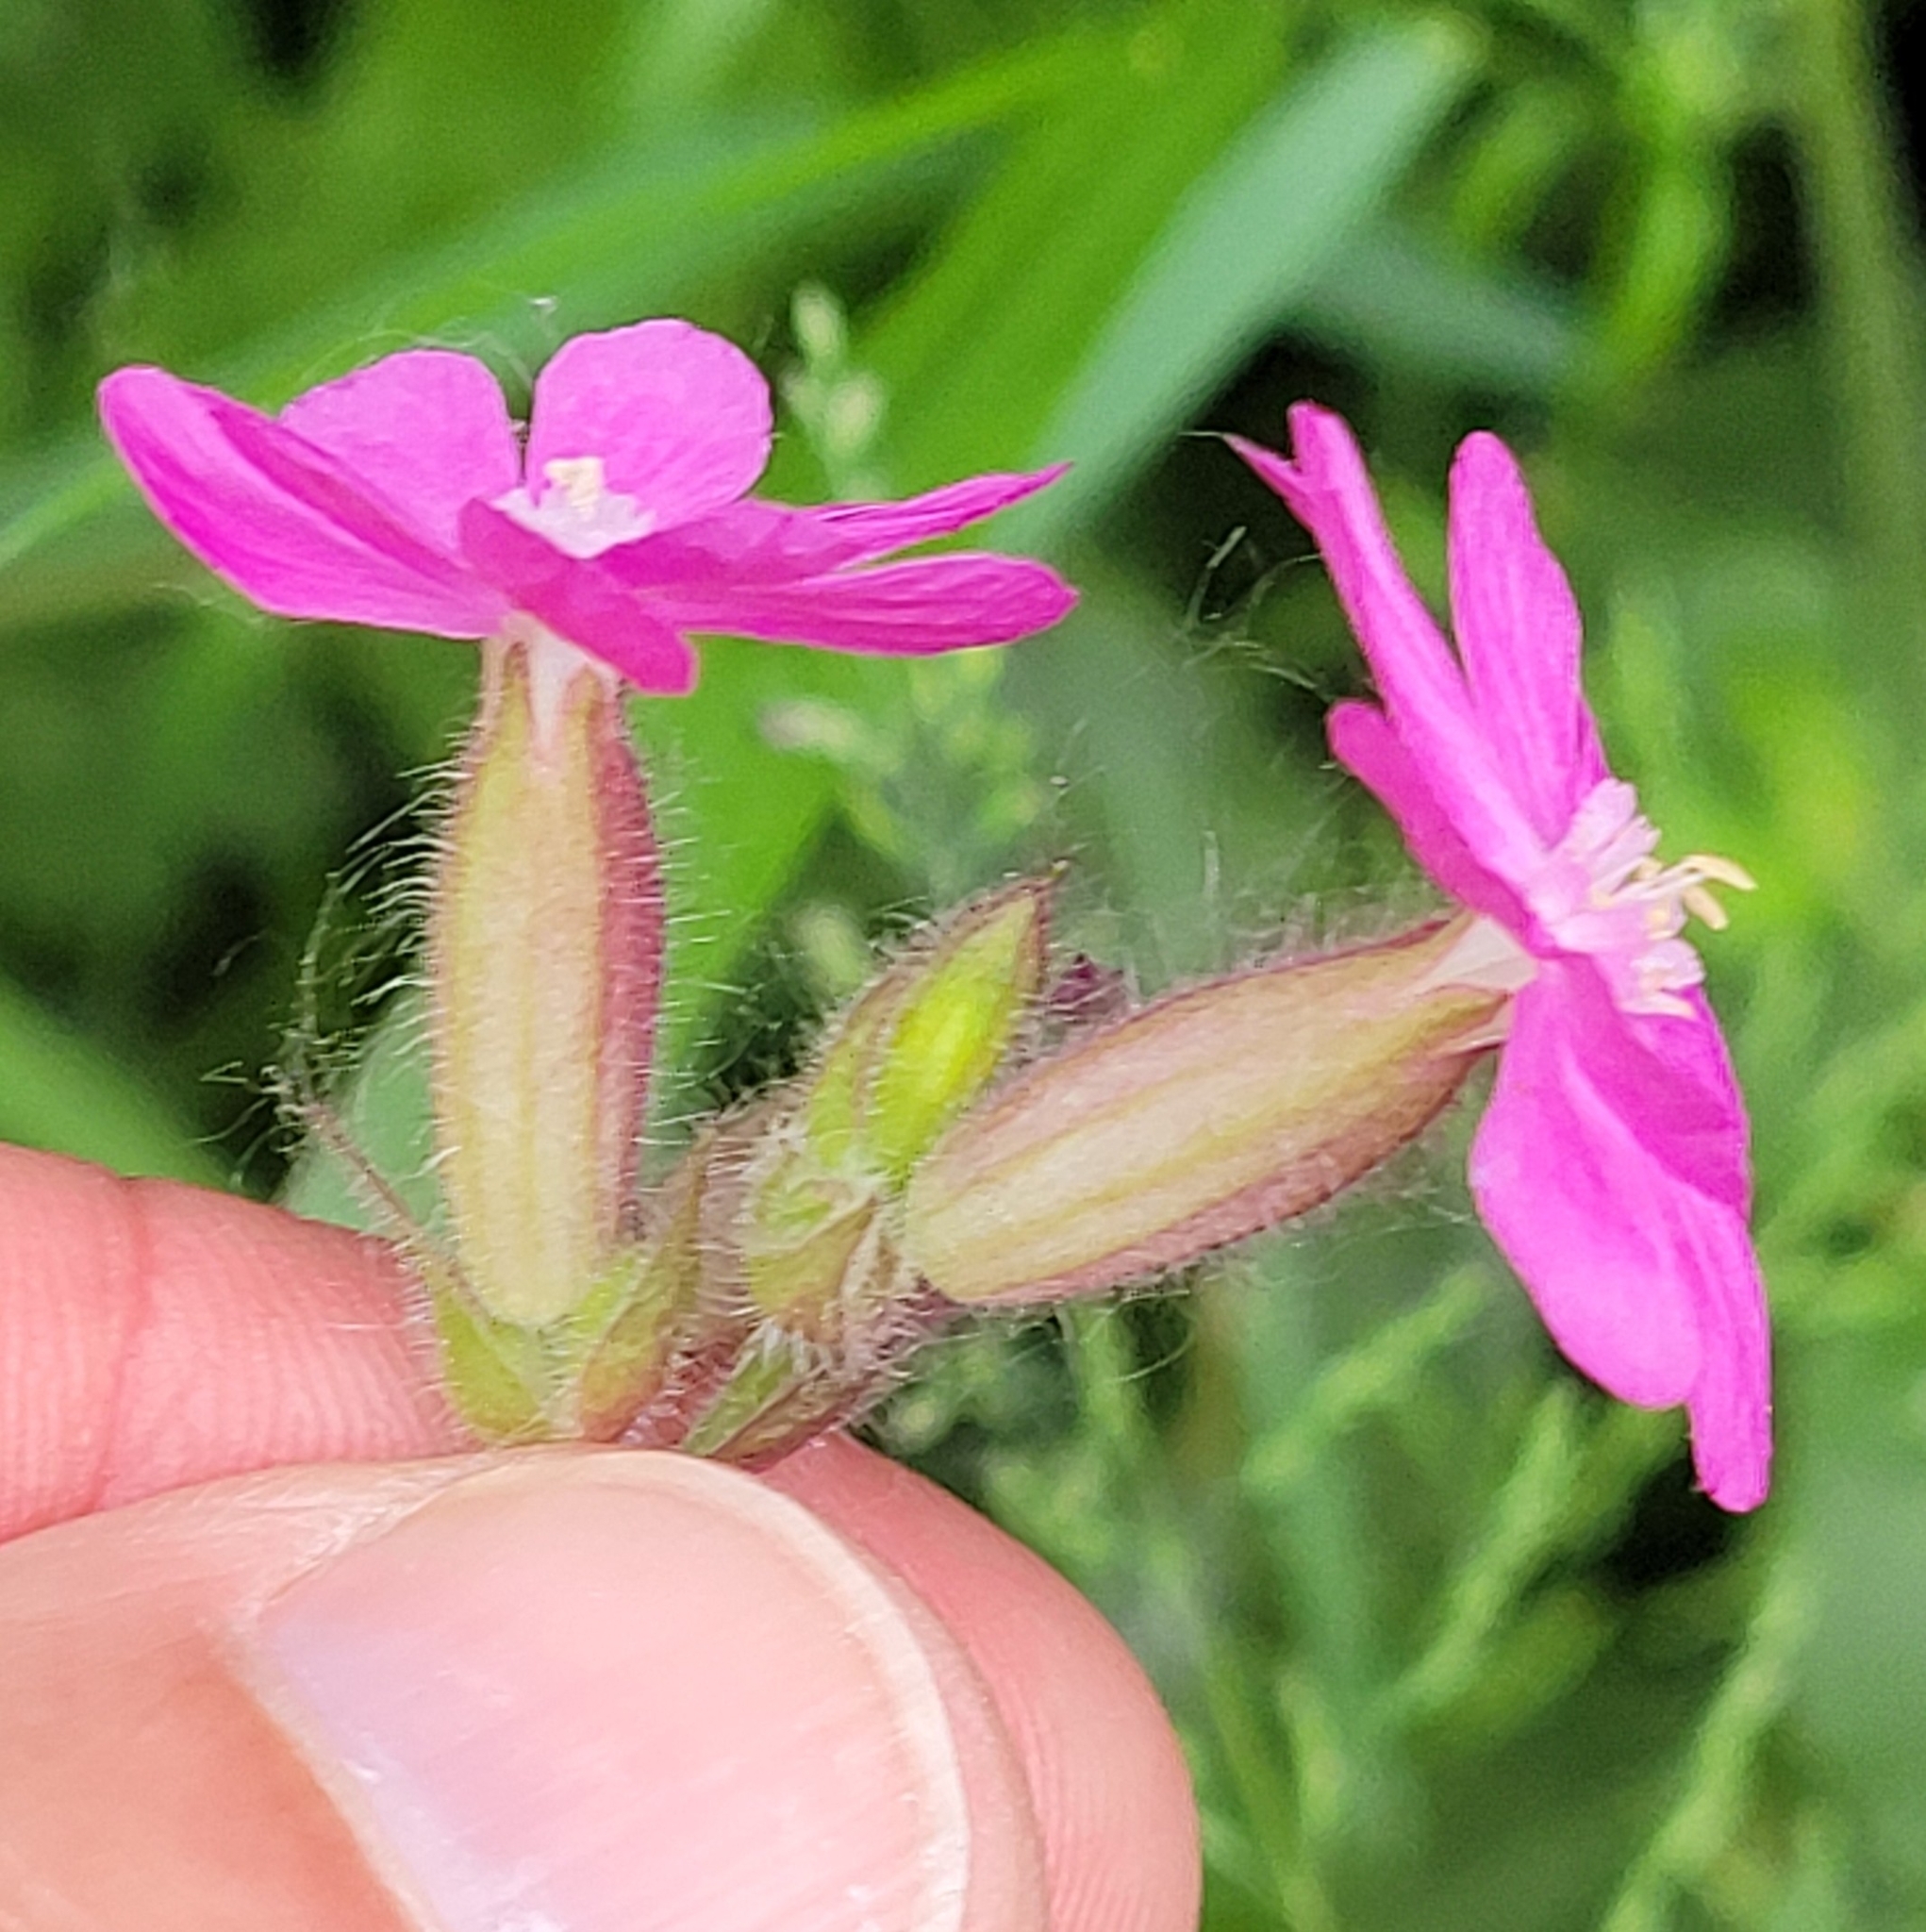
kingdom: Plantae
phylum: Tracheophyta
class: Magnoliopsida
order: Caryophyllales
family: Caryophyllaceae
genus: Silene
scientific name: Silene dioica
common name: Red campion
